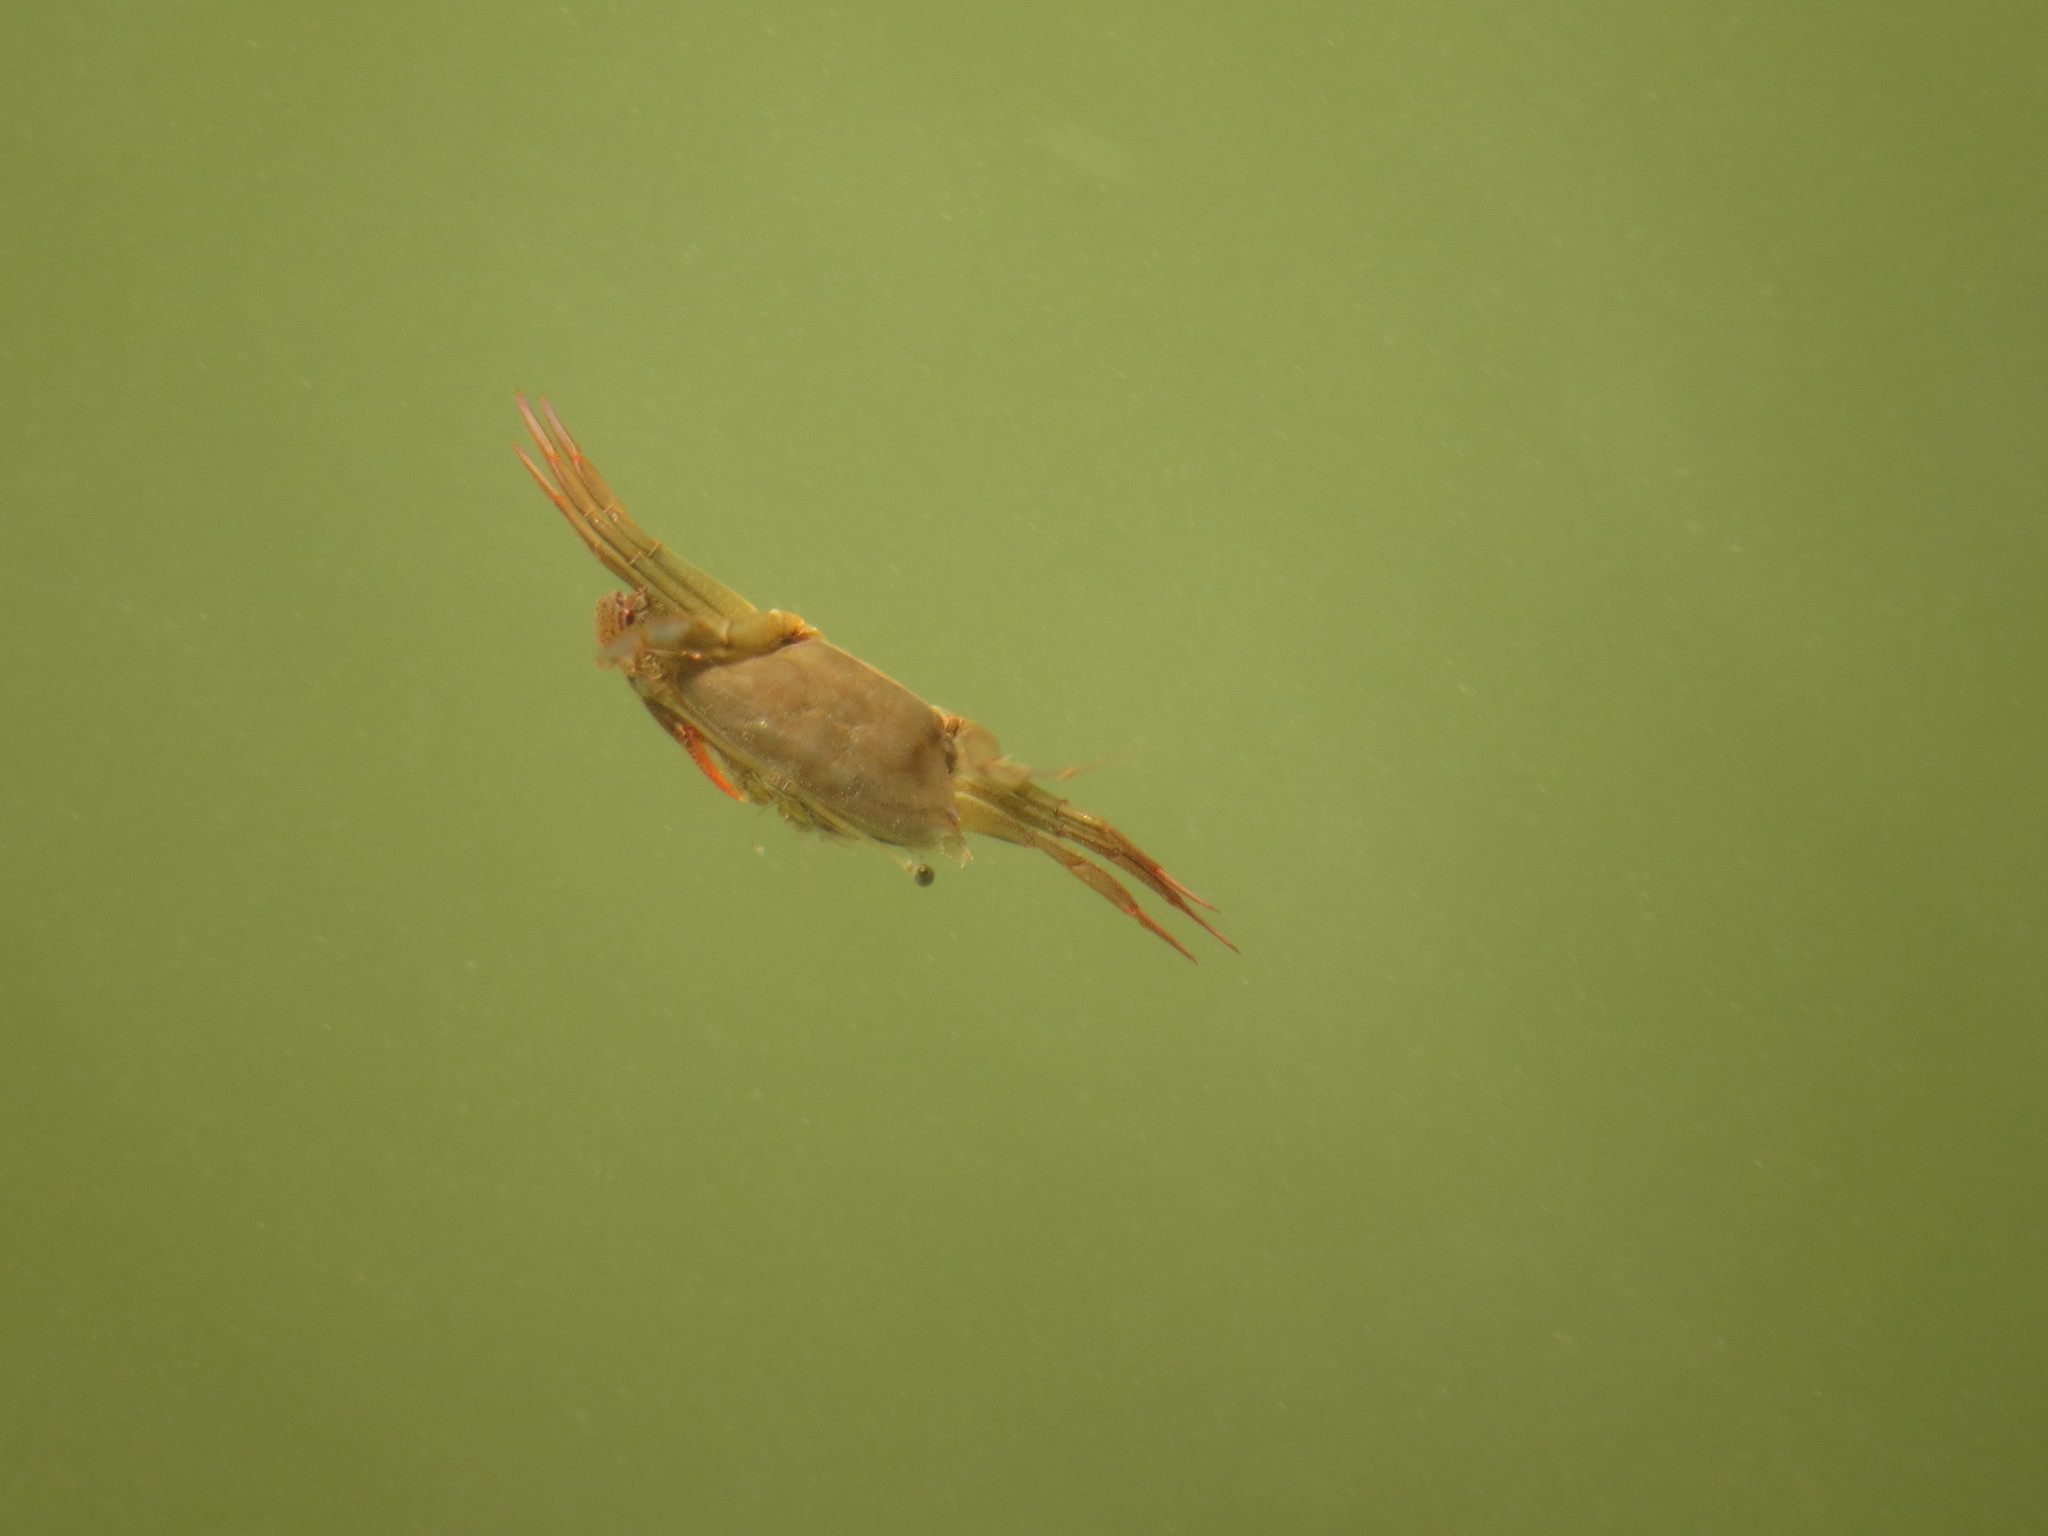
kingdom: Animalia
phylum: Arthropoda
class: Malacostraca
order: Decapoda
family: Portunidae
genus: Podophthalmus
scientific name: Podophthalmus vigil
